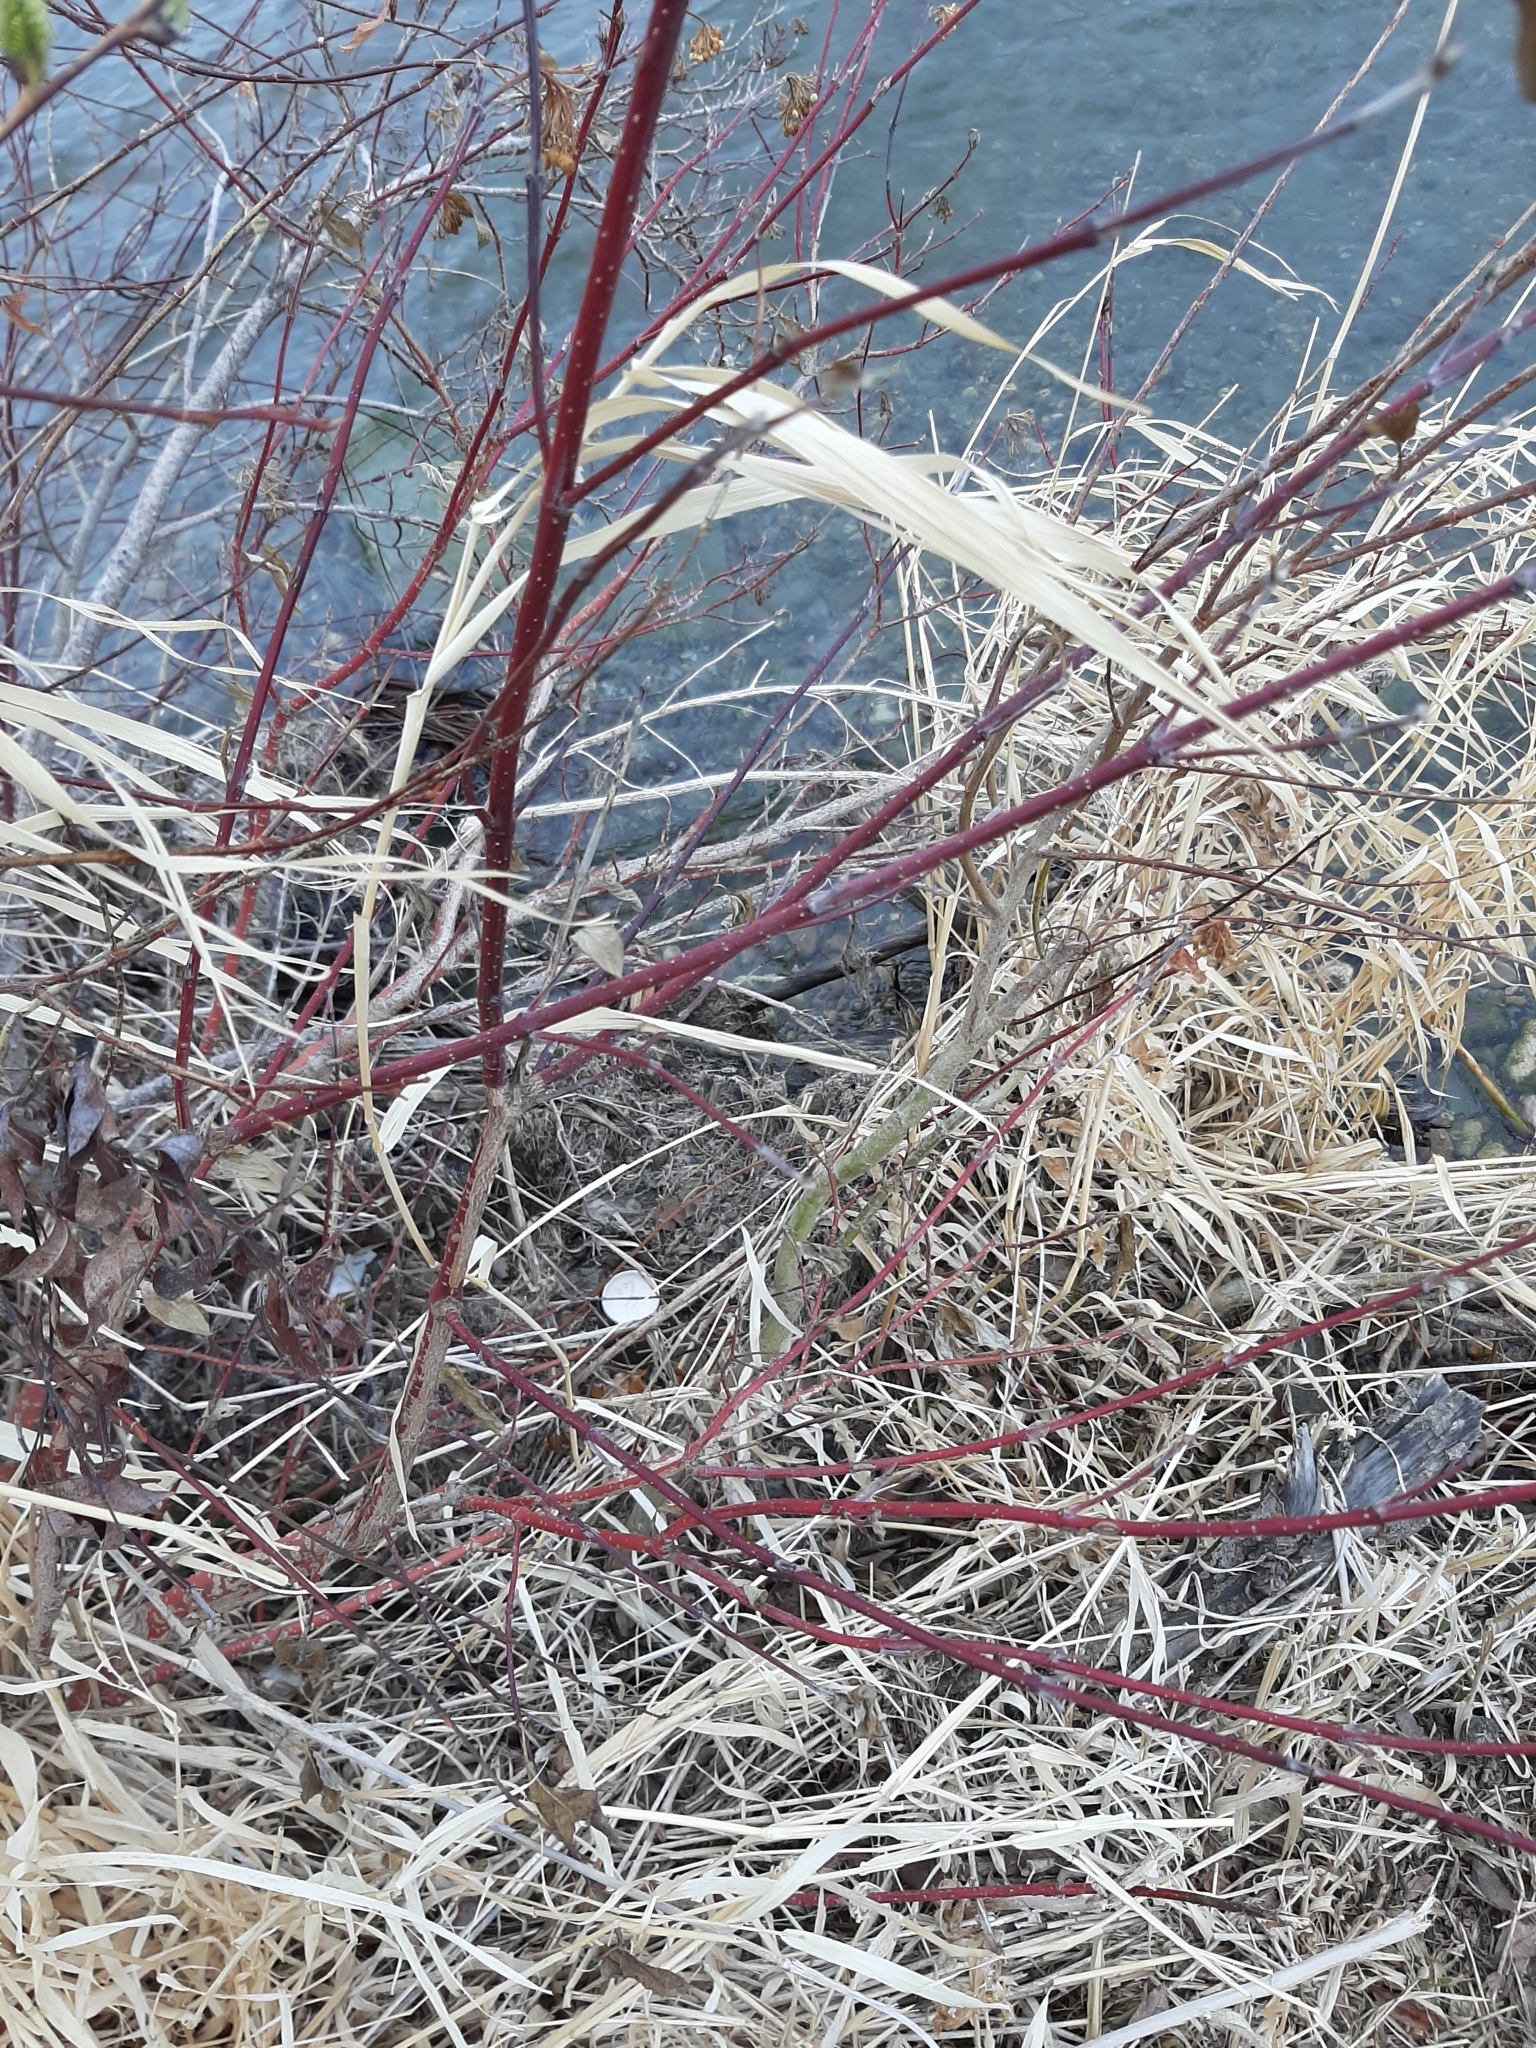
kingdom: Plantae
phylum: Tracheophyta
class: Magnoliopsida
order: Cornales
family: Cornaceae
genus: Cornus
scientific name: Cornus sericea
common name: Red-osier dogwood
